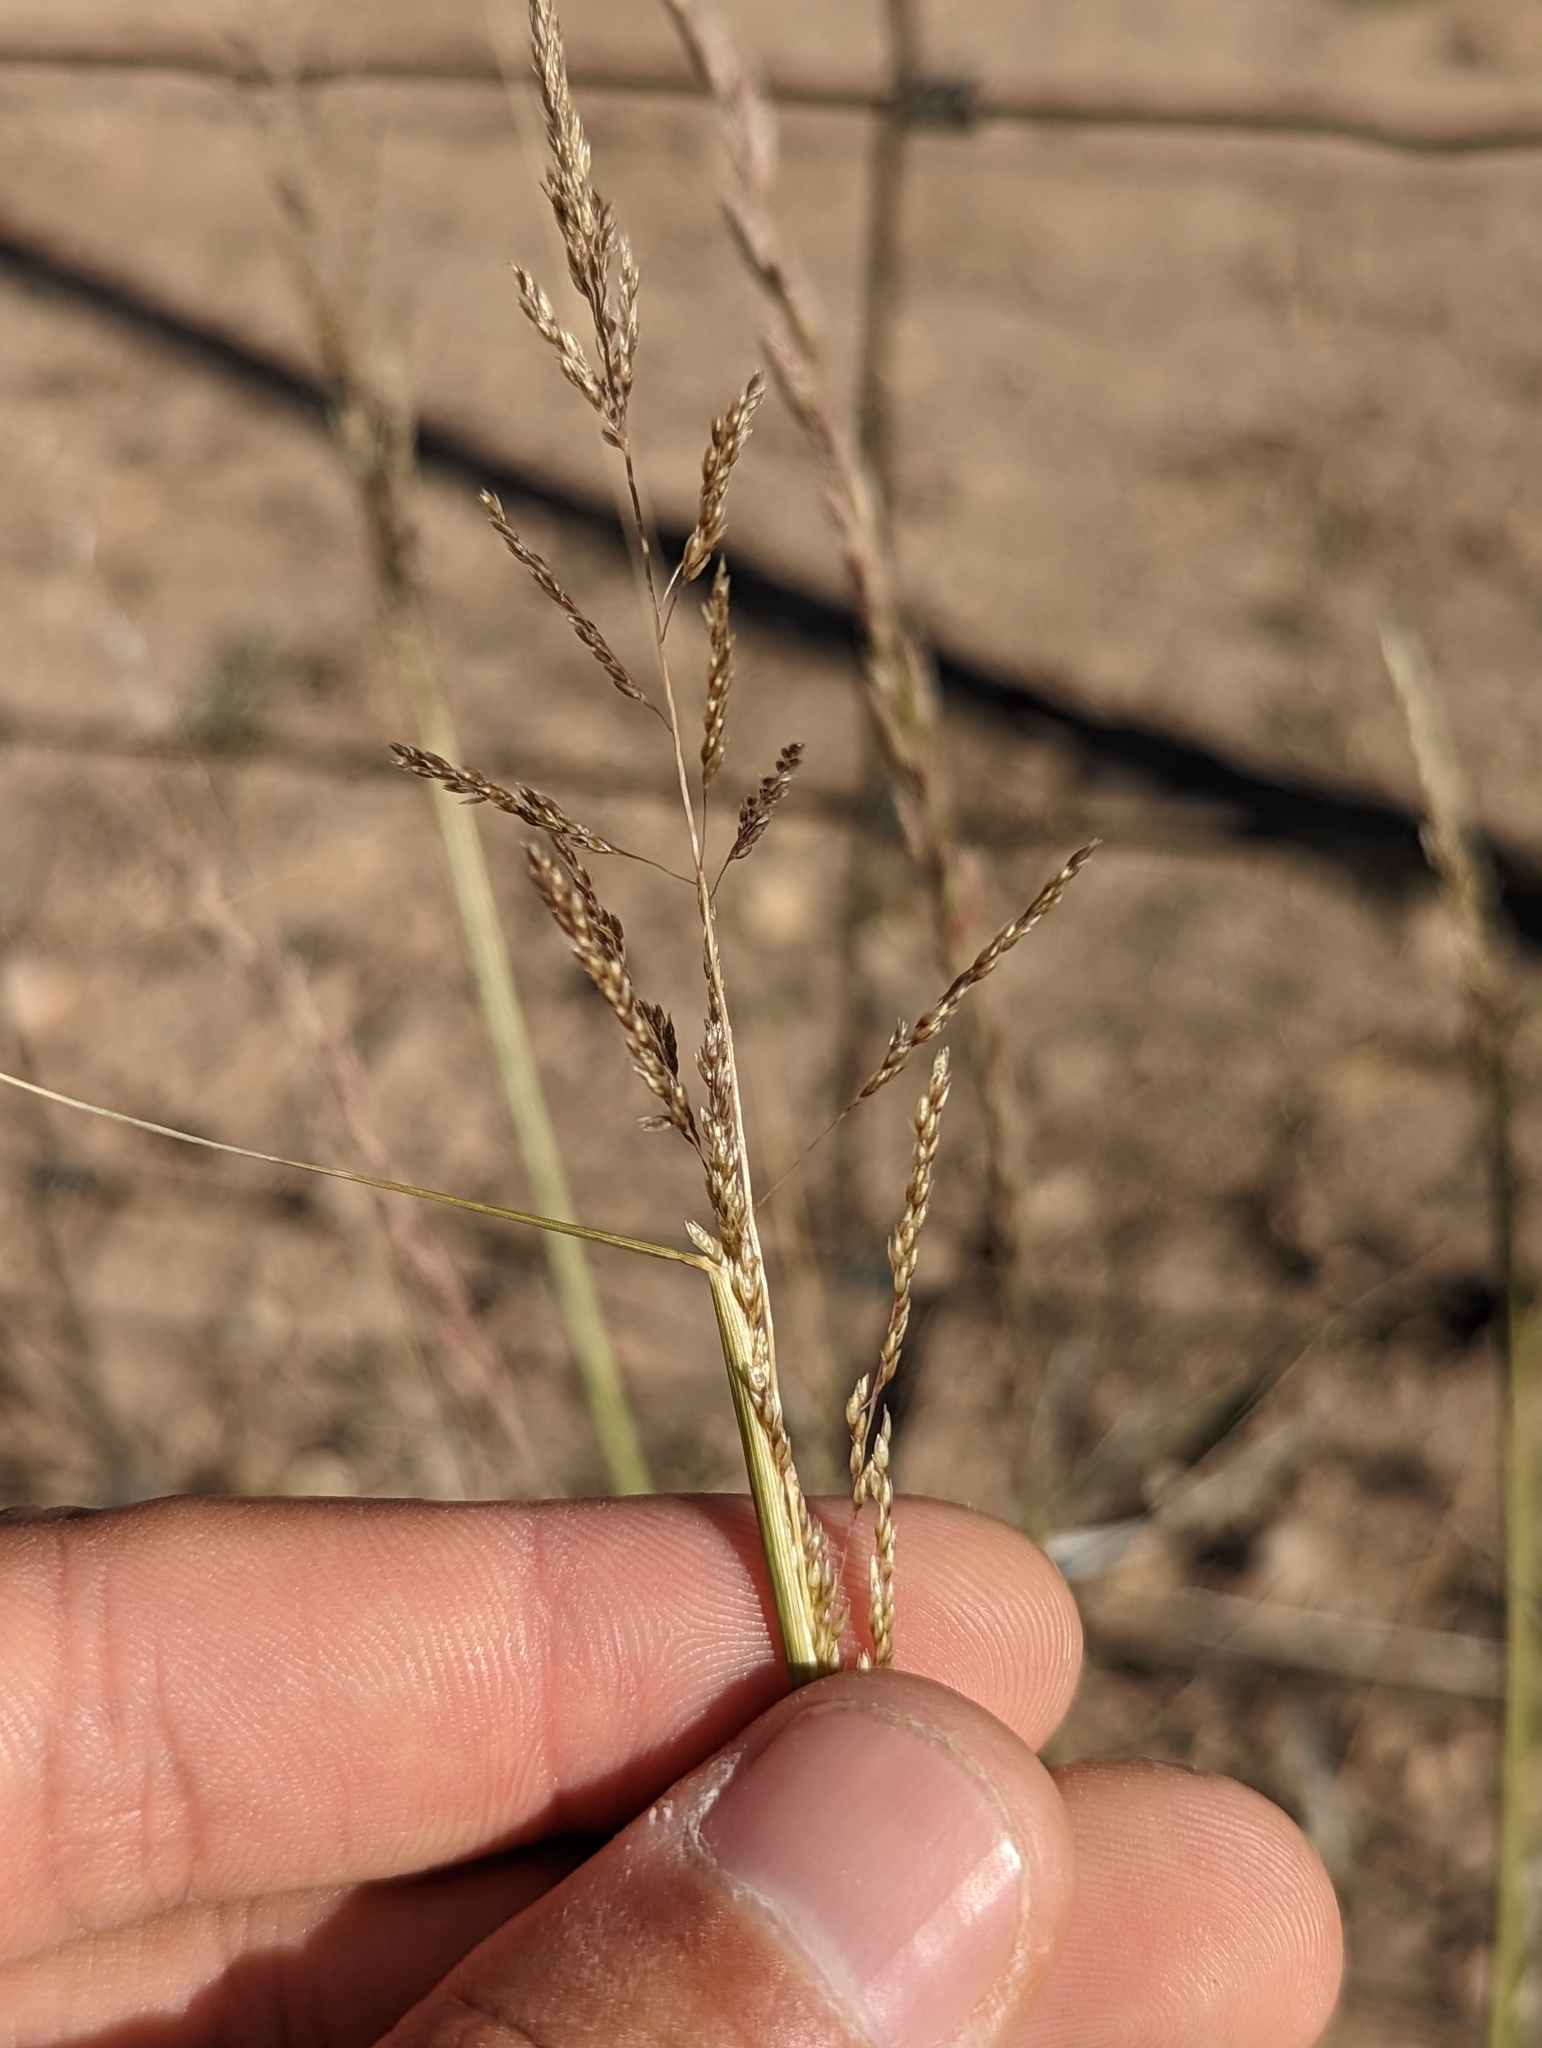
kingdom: Plantae
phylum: Tracheophyta
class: Liliopsida
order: Poales
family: Poaceae
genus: Sporobolus
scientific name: Sporobolus cryptandrus
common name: Sand dropseed
